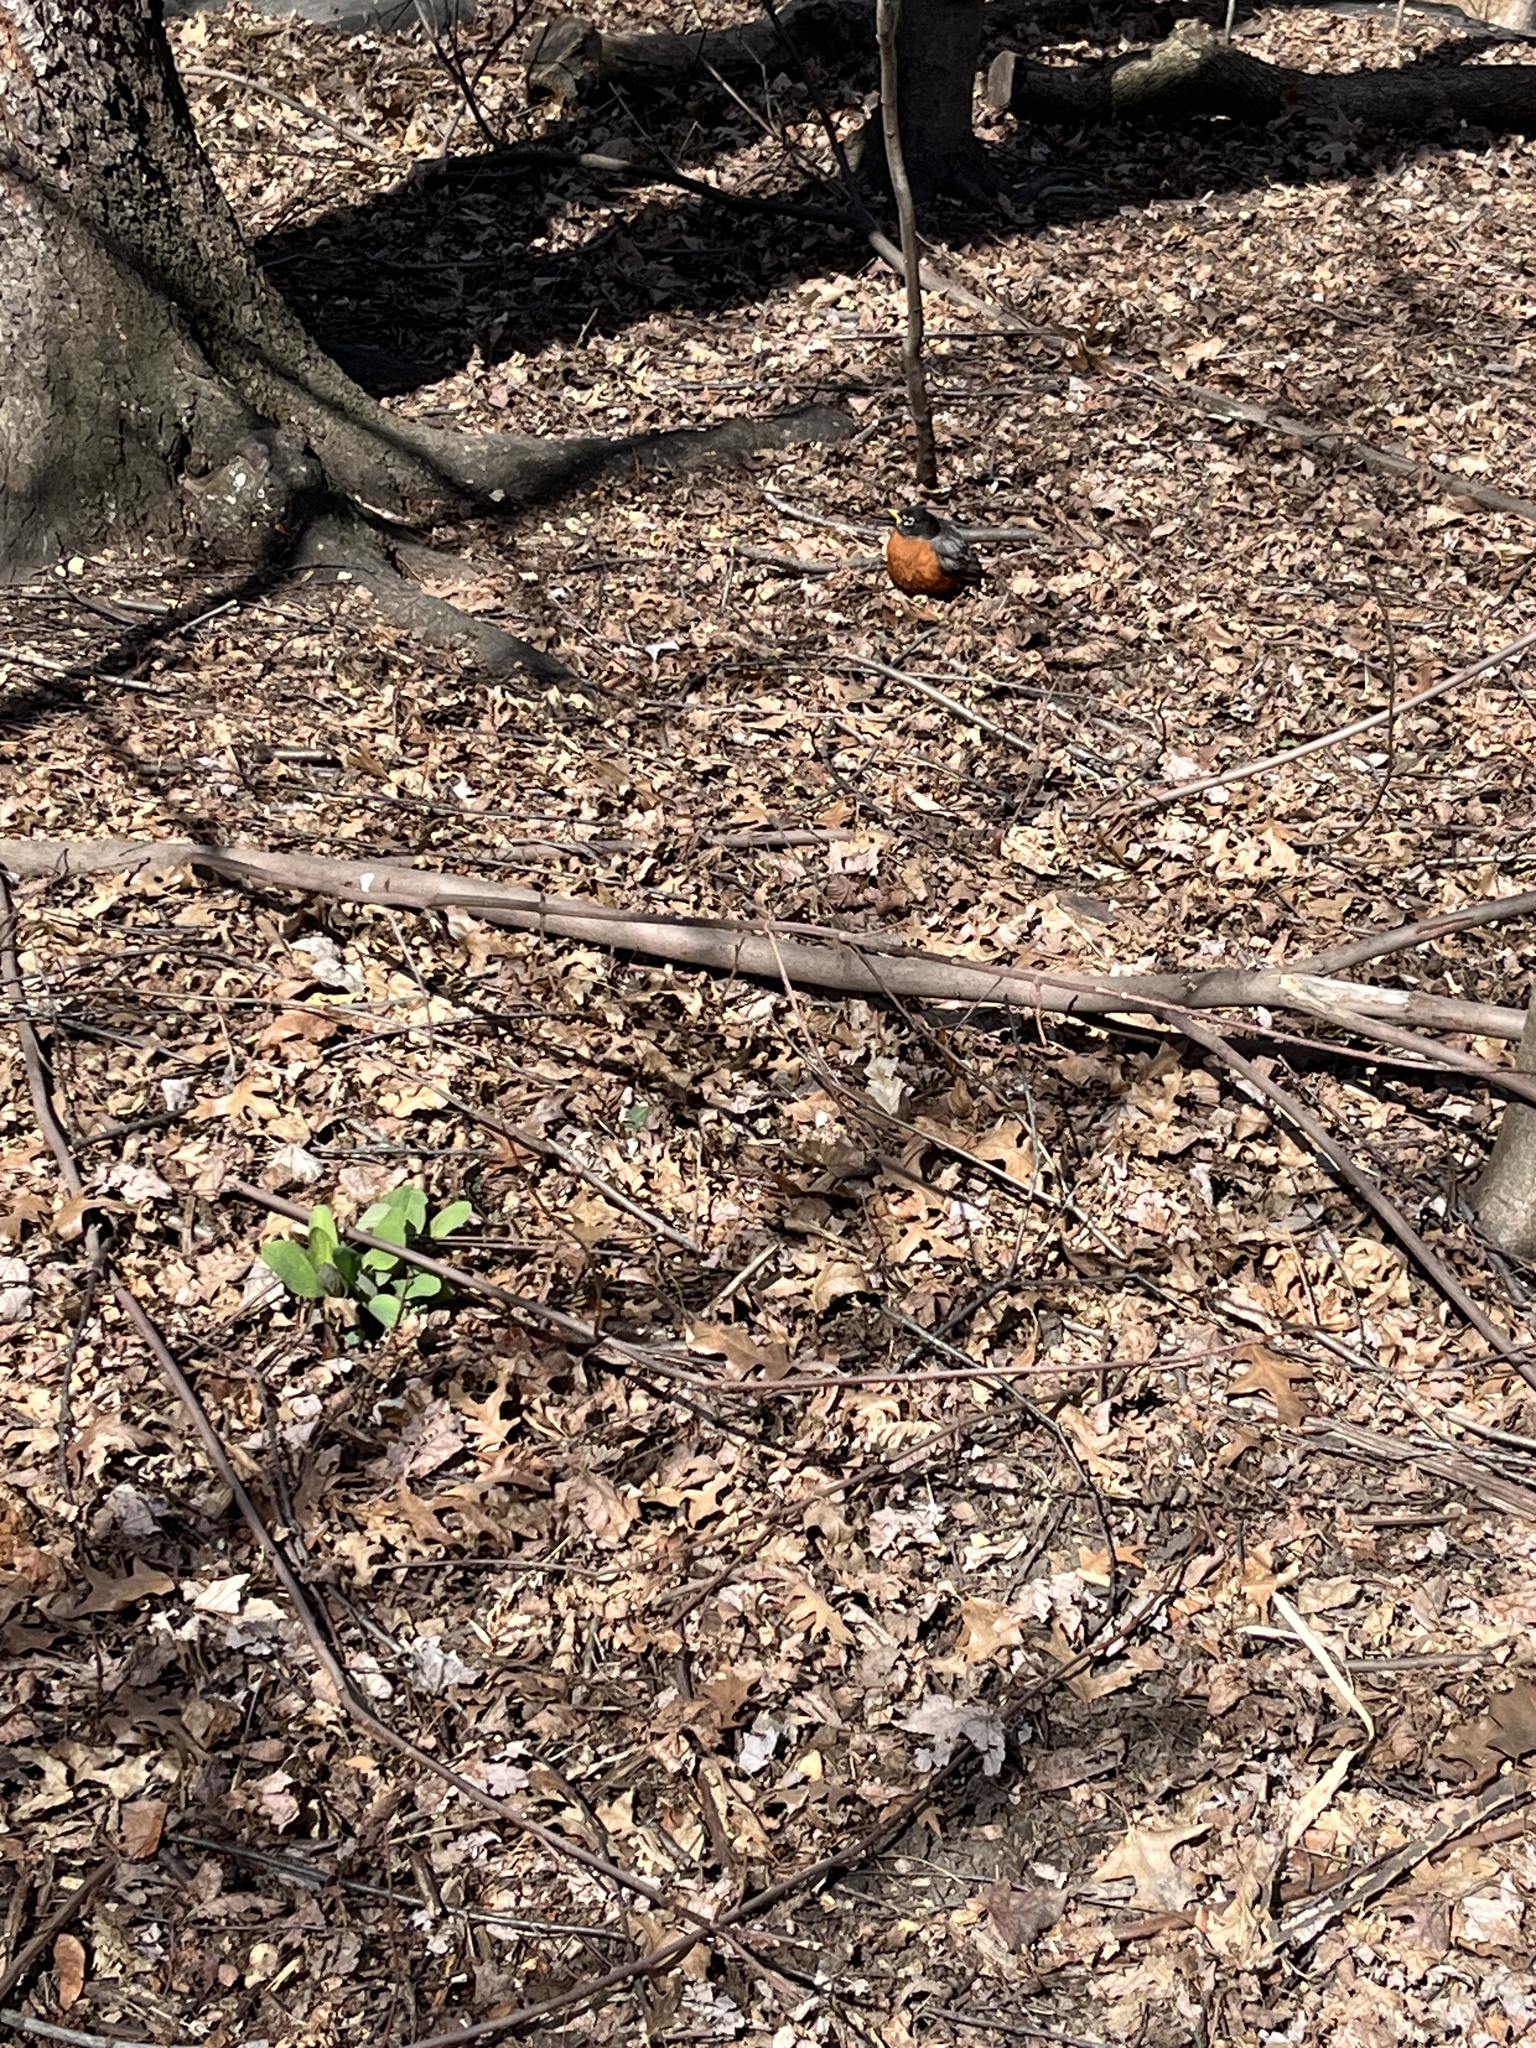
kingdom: Animalia
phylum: Chordata
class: Aves
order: Passeriformes
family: Turdidae
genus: Turdus
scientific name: Turdus migratorius
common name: American robin
